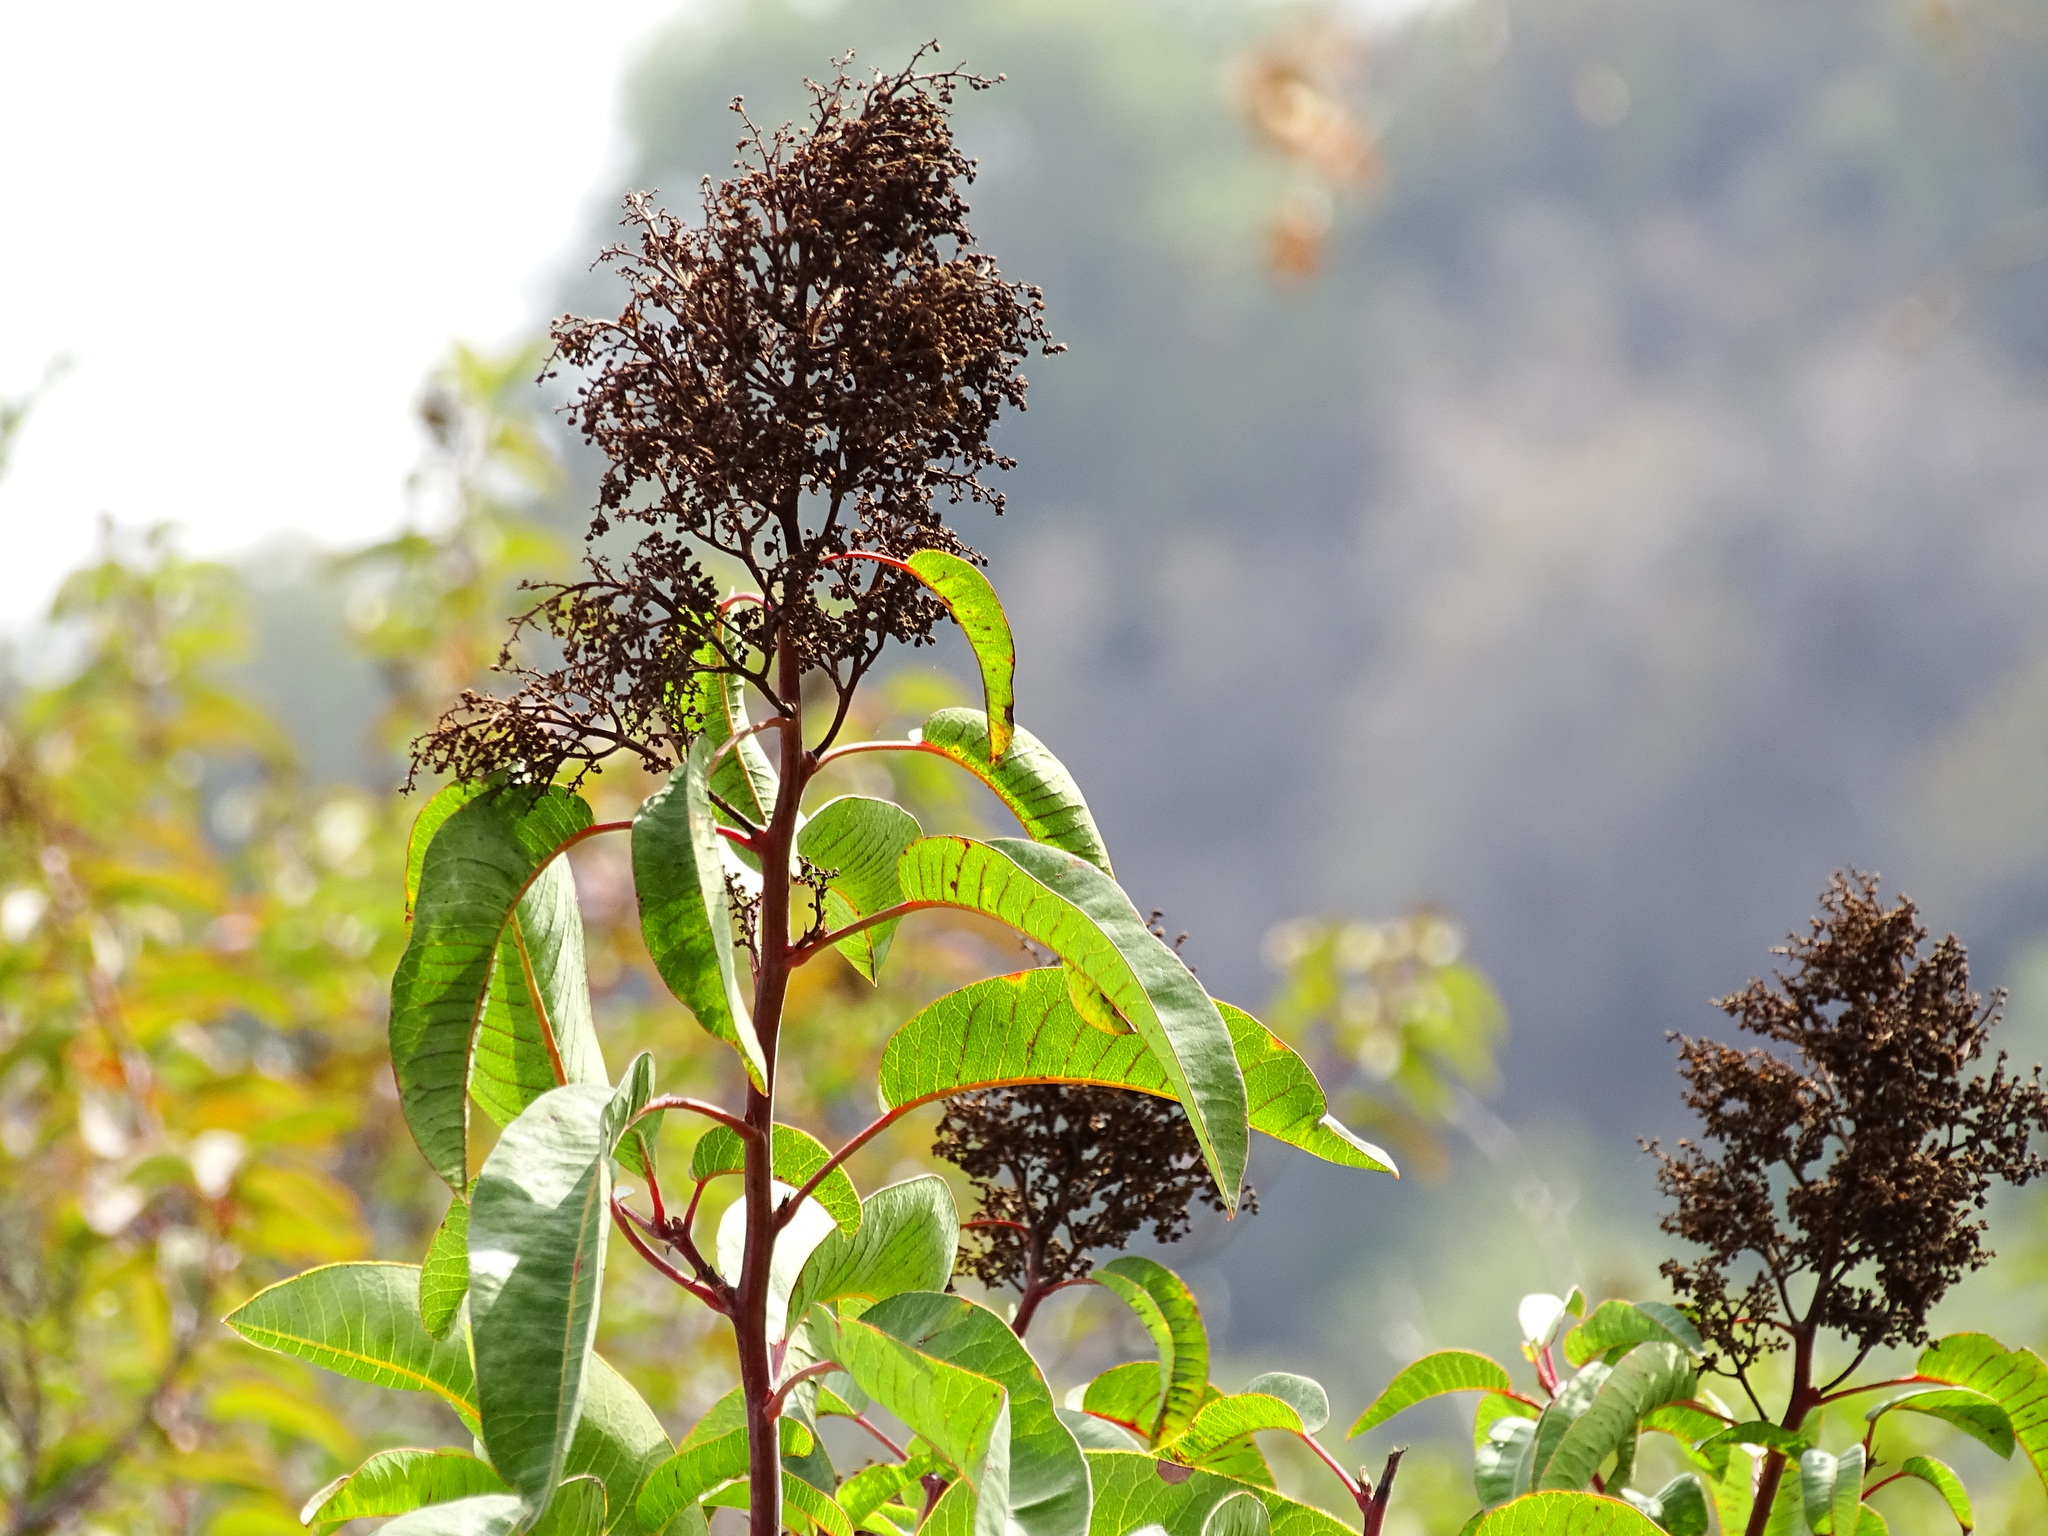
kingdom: Plantae
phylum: Tracheophyta
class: Magnoliopsida
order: Sapindales
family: Anacardiaceae
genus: Malosma
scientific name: Malosma laurina
